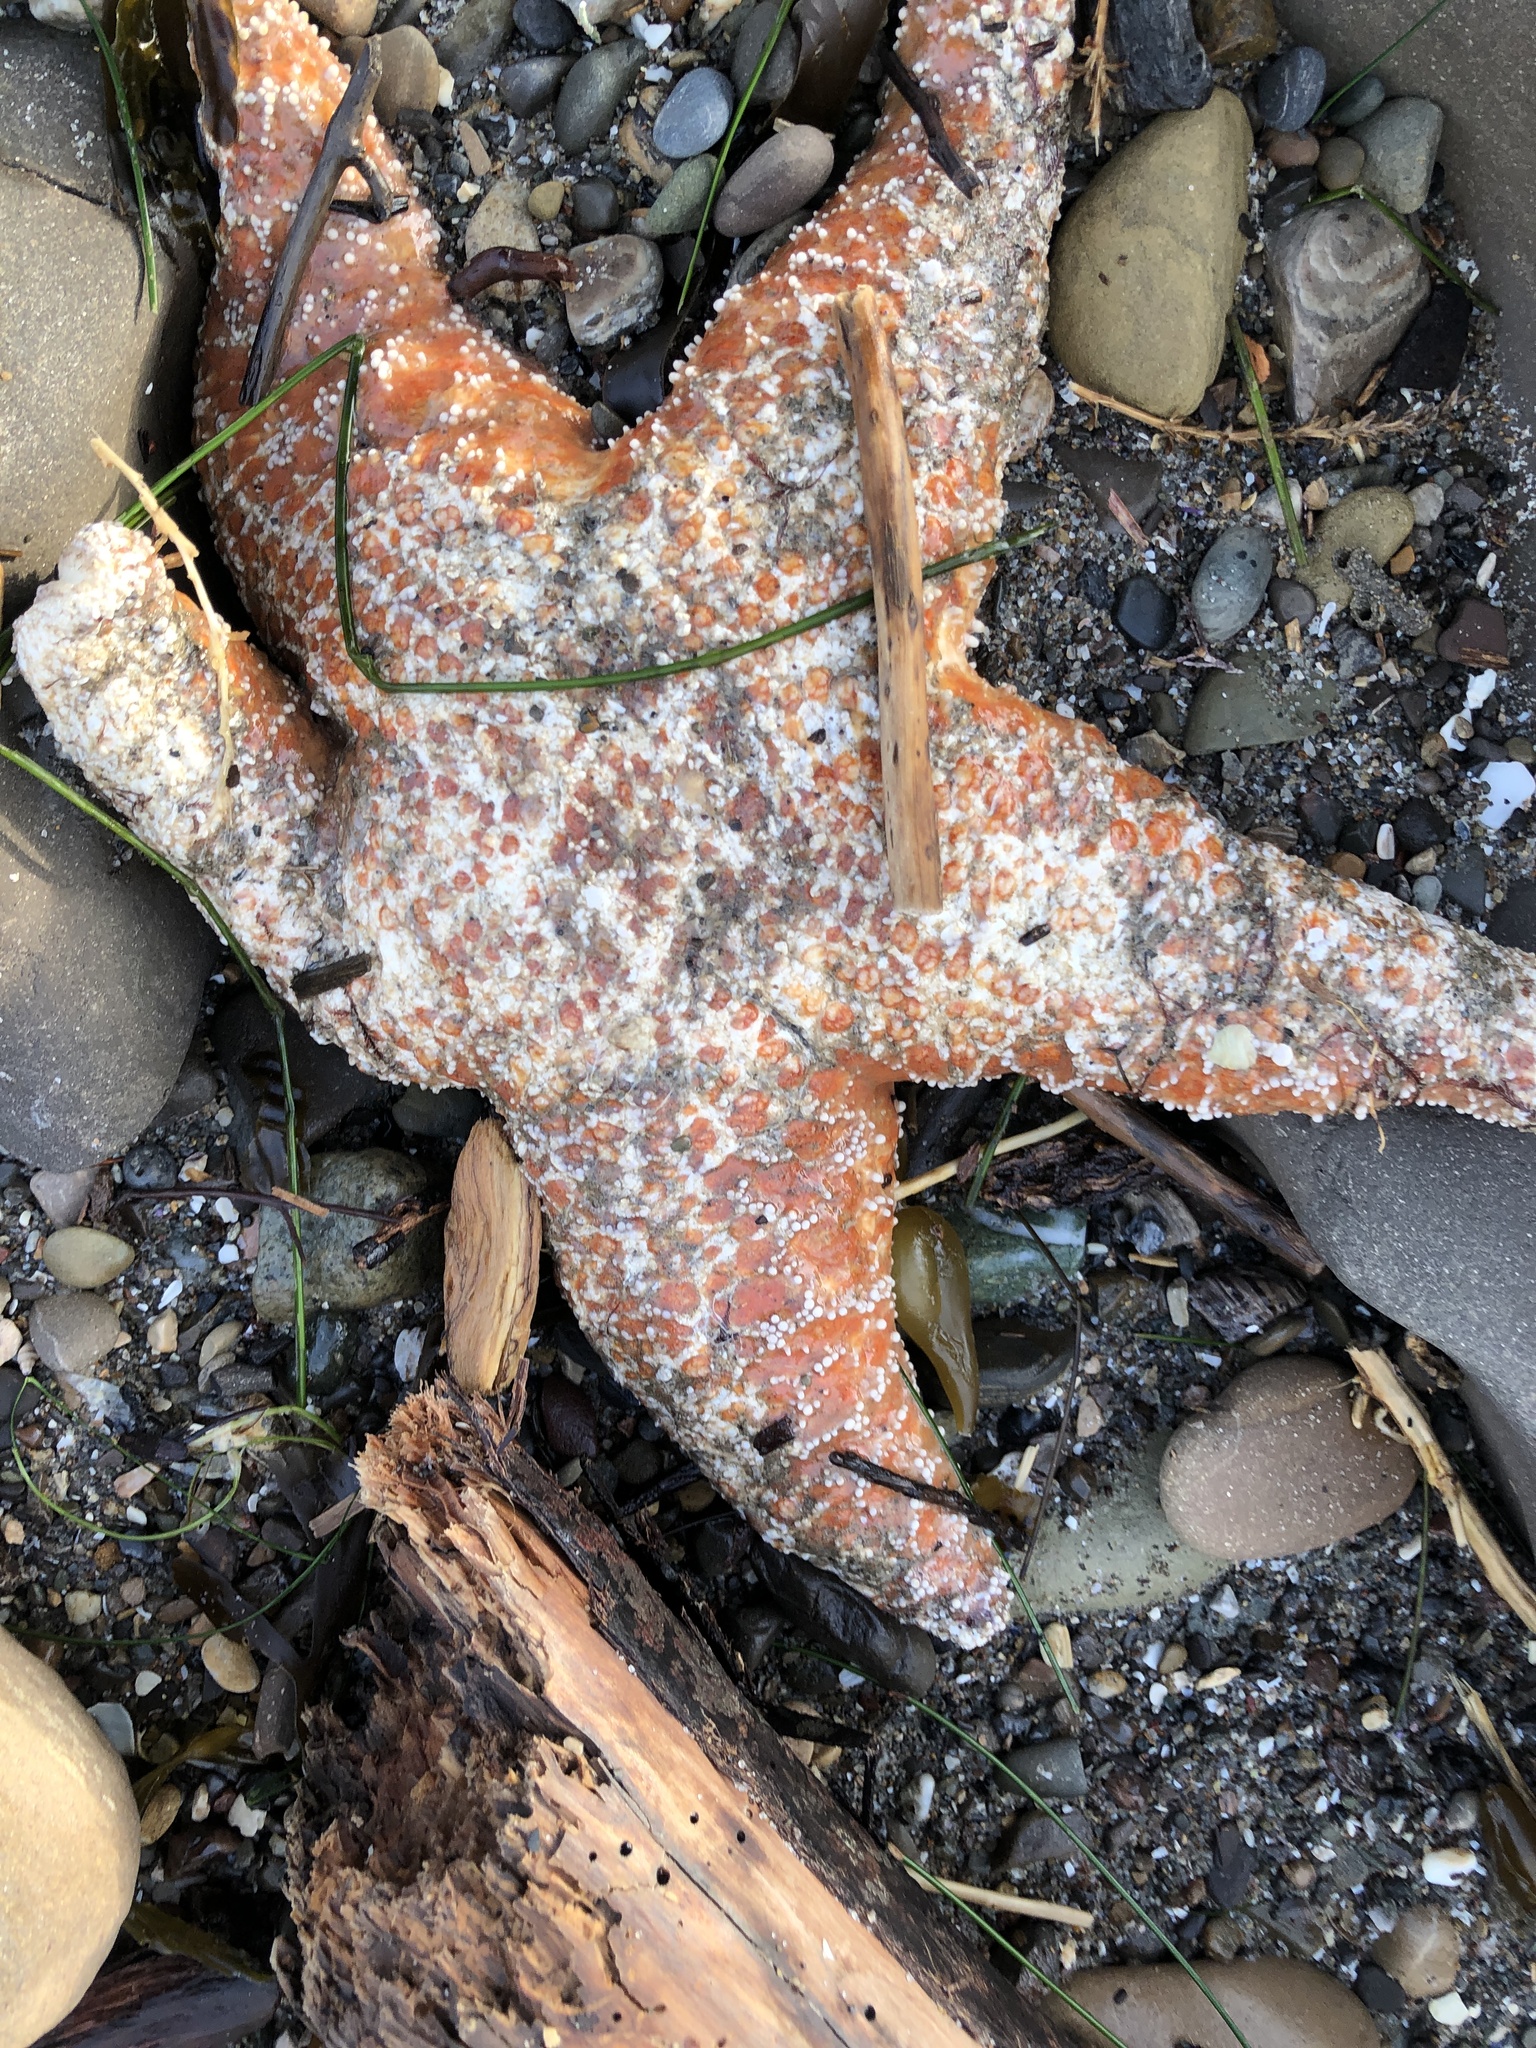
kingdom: Animalia
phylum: Echinodermata
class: Asteroidea
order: Forcipulatida
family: Asteriidae
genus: Pisaster
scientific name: Pisaster ochraceus
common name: Ochre stars
